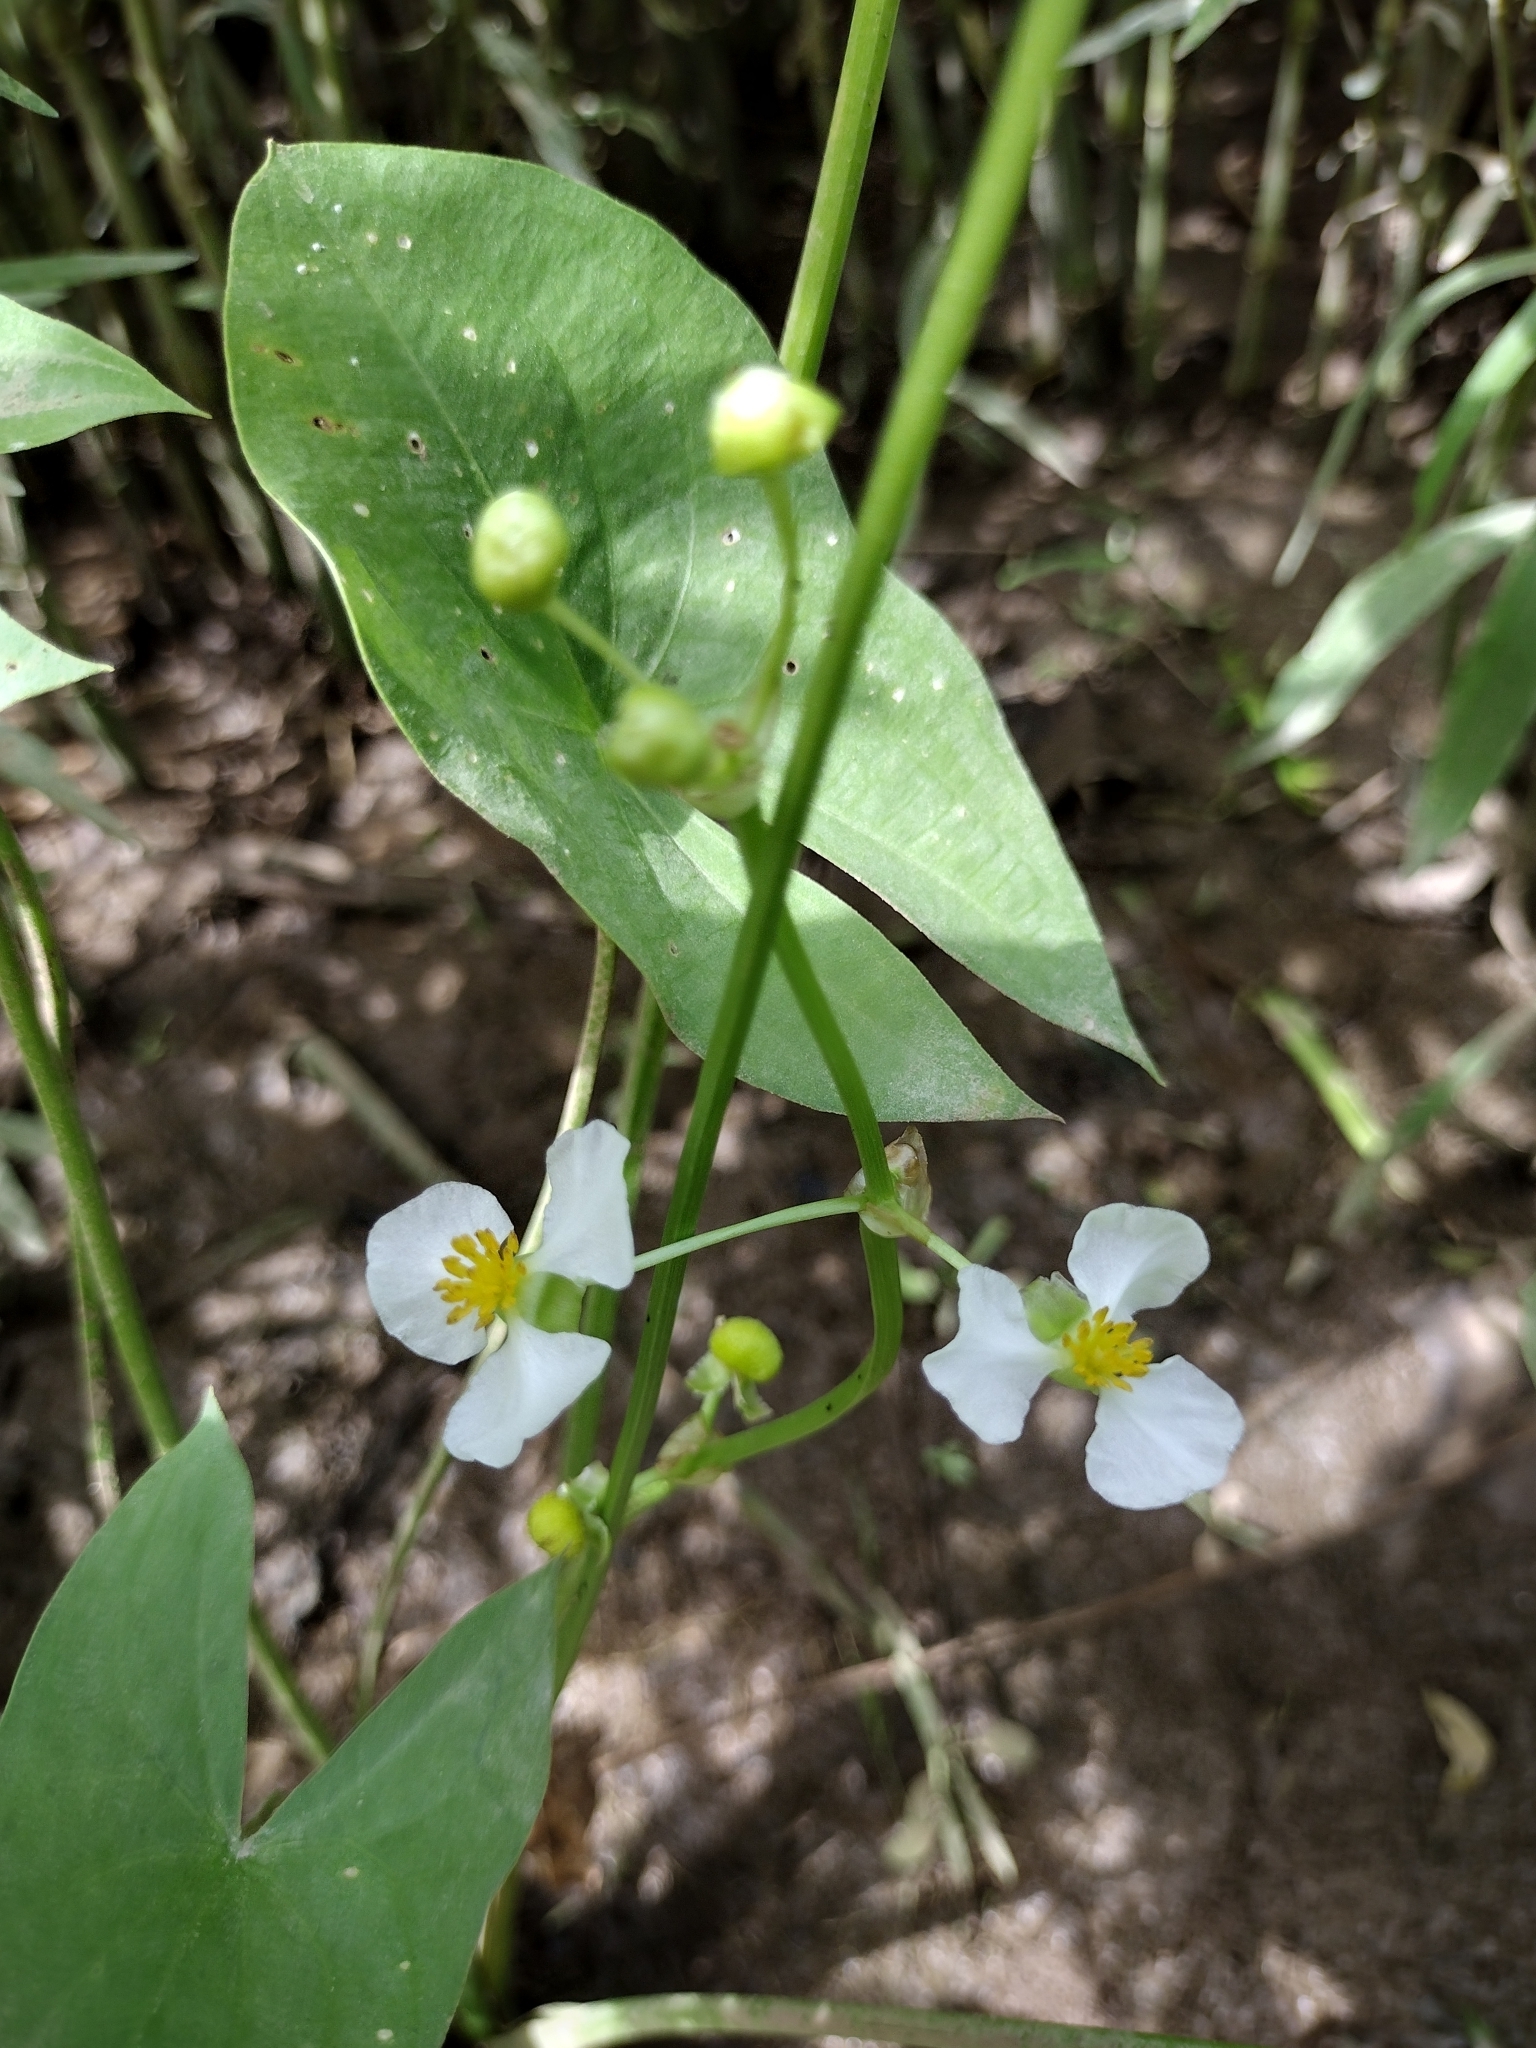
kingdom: Plantae
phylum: Tracheophyta
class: Liliopsida
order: Alismatales
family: Alismataceae
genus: Sagittaria
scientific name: Sagittaria latifolia
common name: Duck-potato
